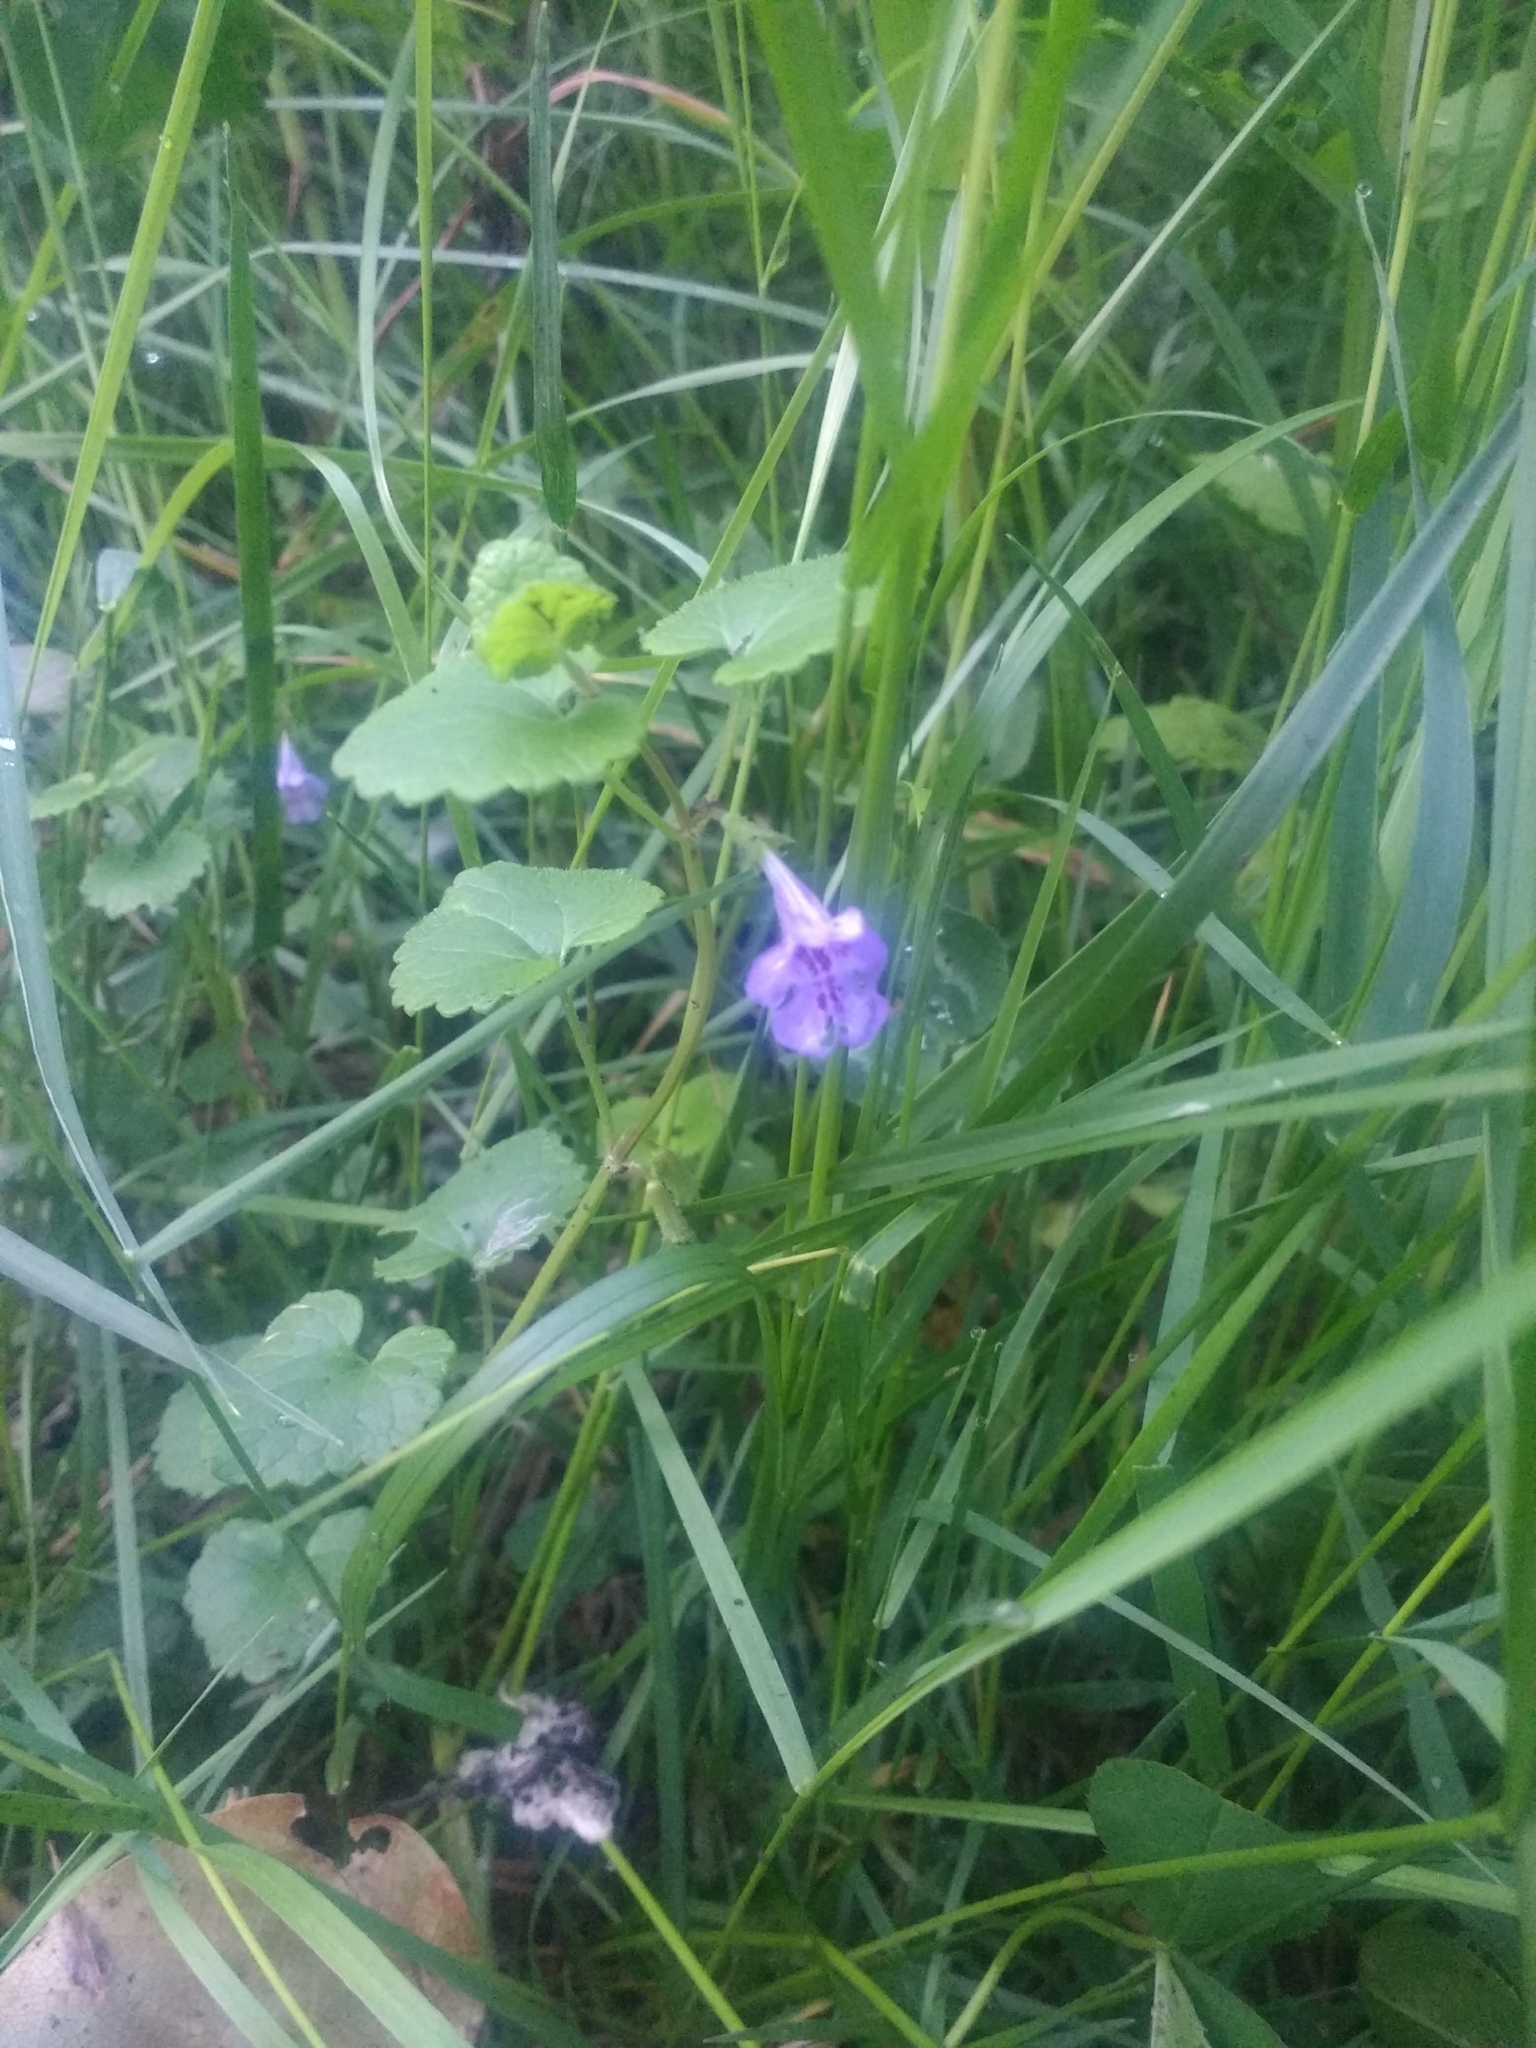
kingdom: Plantae
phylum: Tracheophyta
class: Magnoliopsida
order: Lamiales
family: Lamiaceae
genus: Glechoma
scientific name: Glechoma hederacea
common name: Ground ivy
